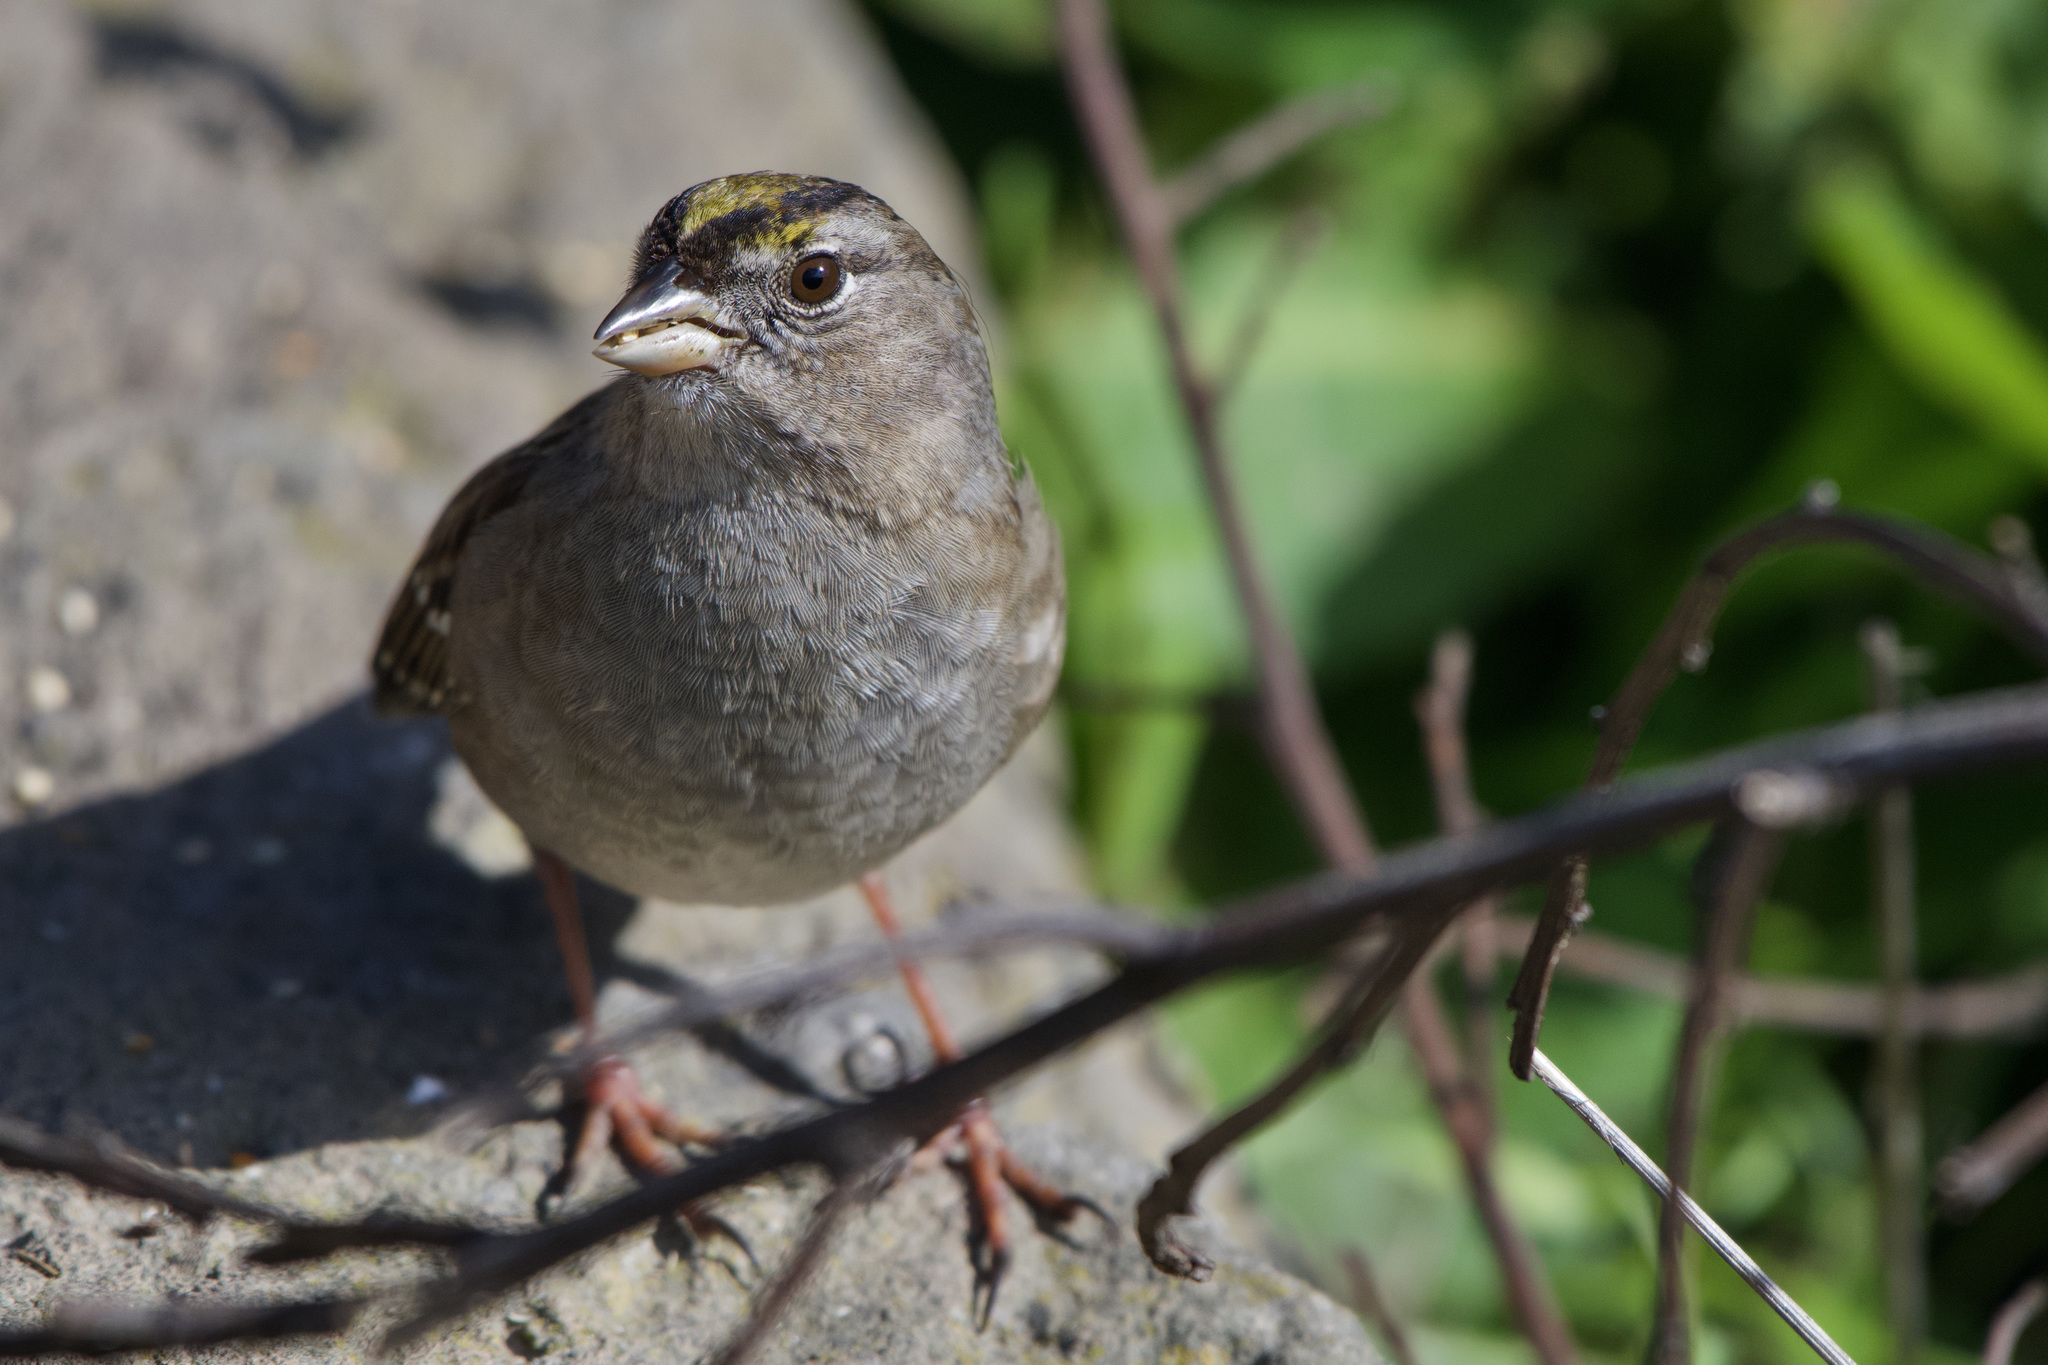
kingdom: Animalia
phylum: Chordata
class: Aves
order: Passeriformes
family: Passerellidae
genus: Zonotrichia
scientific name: Zonotrichia atricapilla
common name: Golden-crowned sparrow
